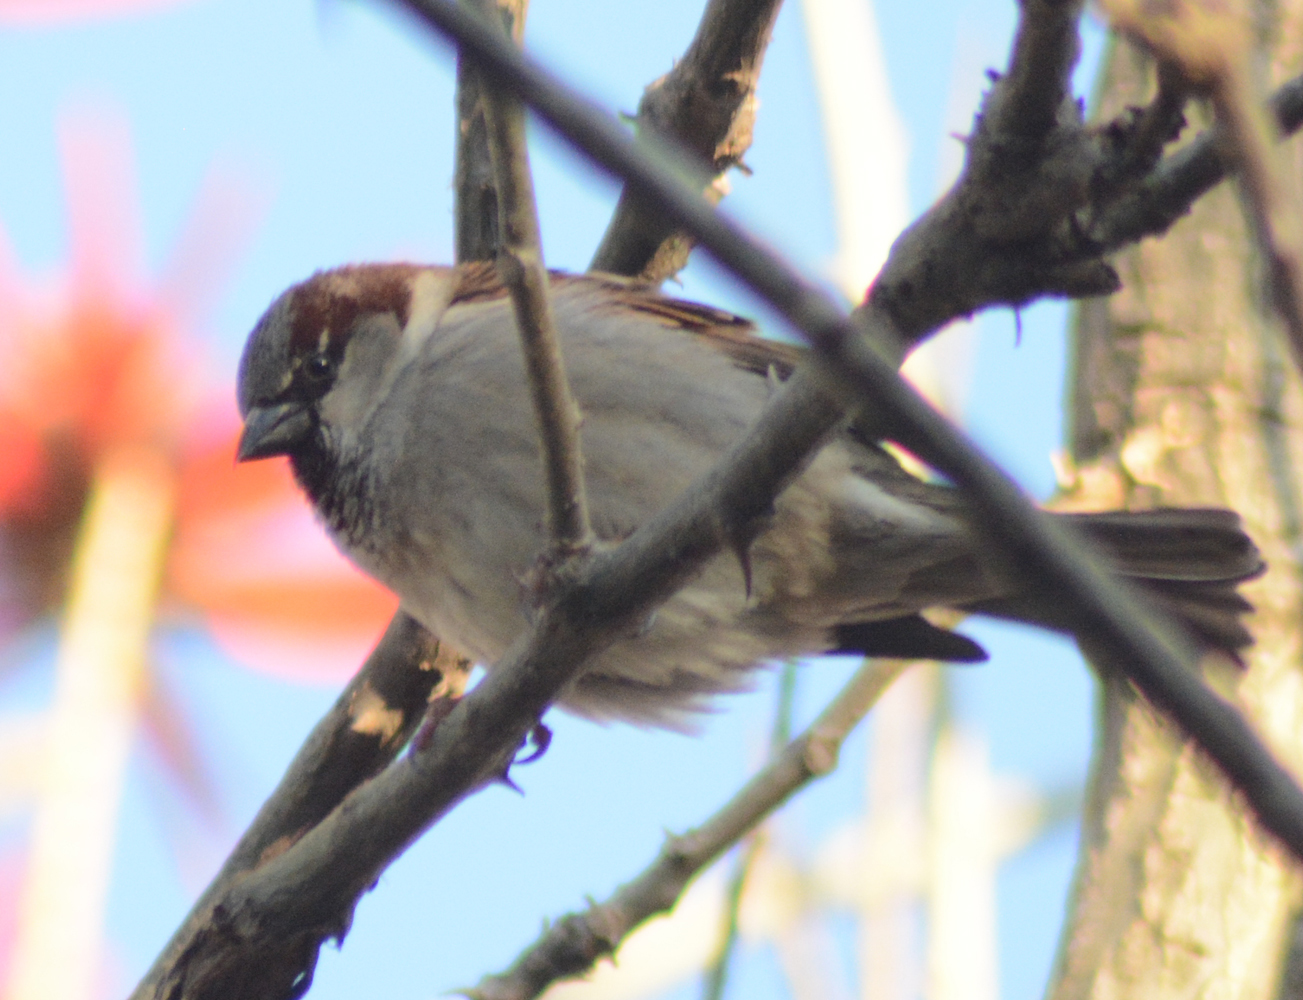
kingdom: Animalia
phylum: Chordata
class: Aves
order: Passeriformes
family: Passeridae
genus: Passer
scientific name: Passer domesticus
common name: House sparrow
